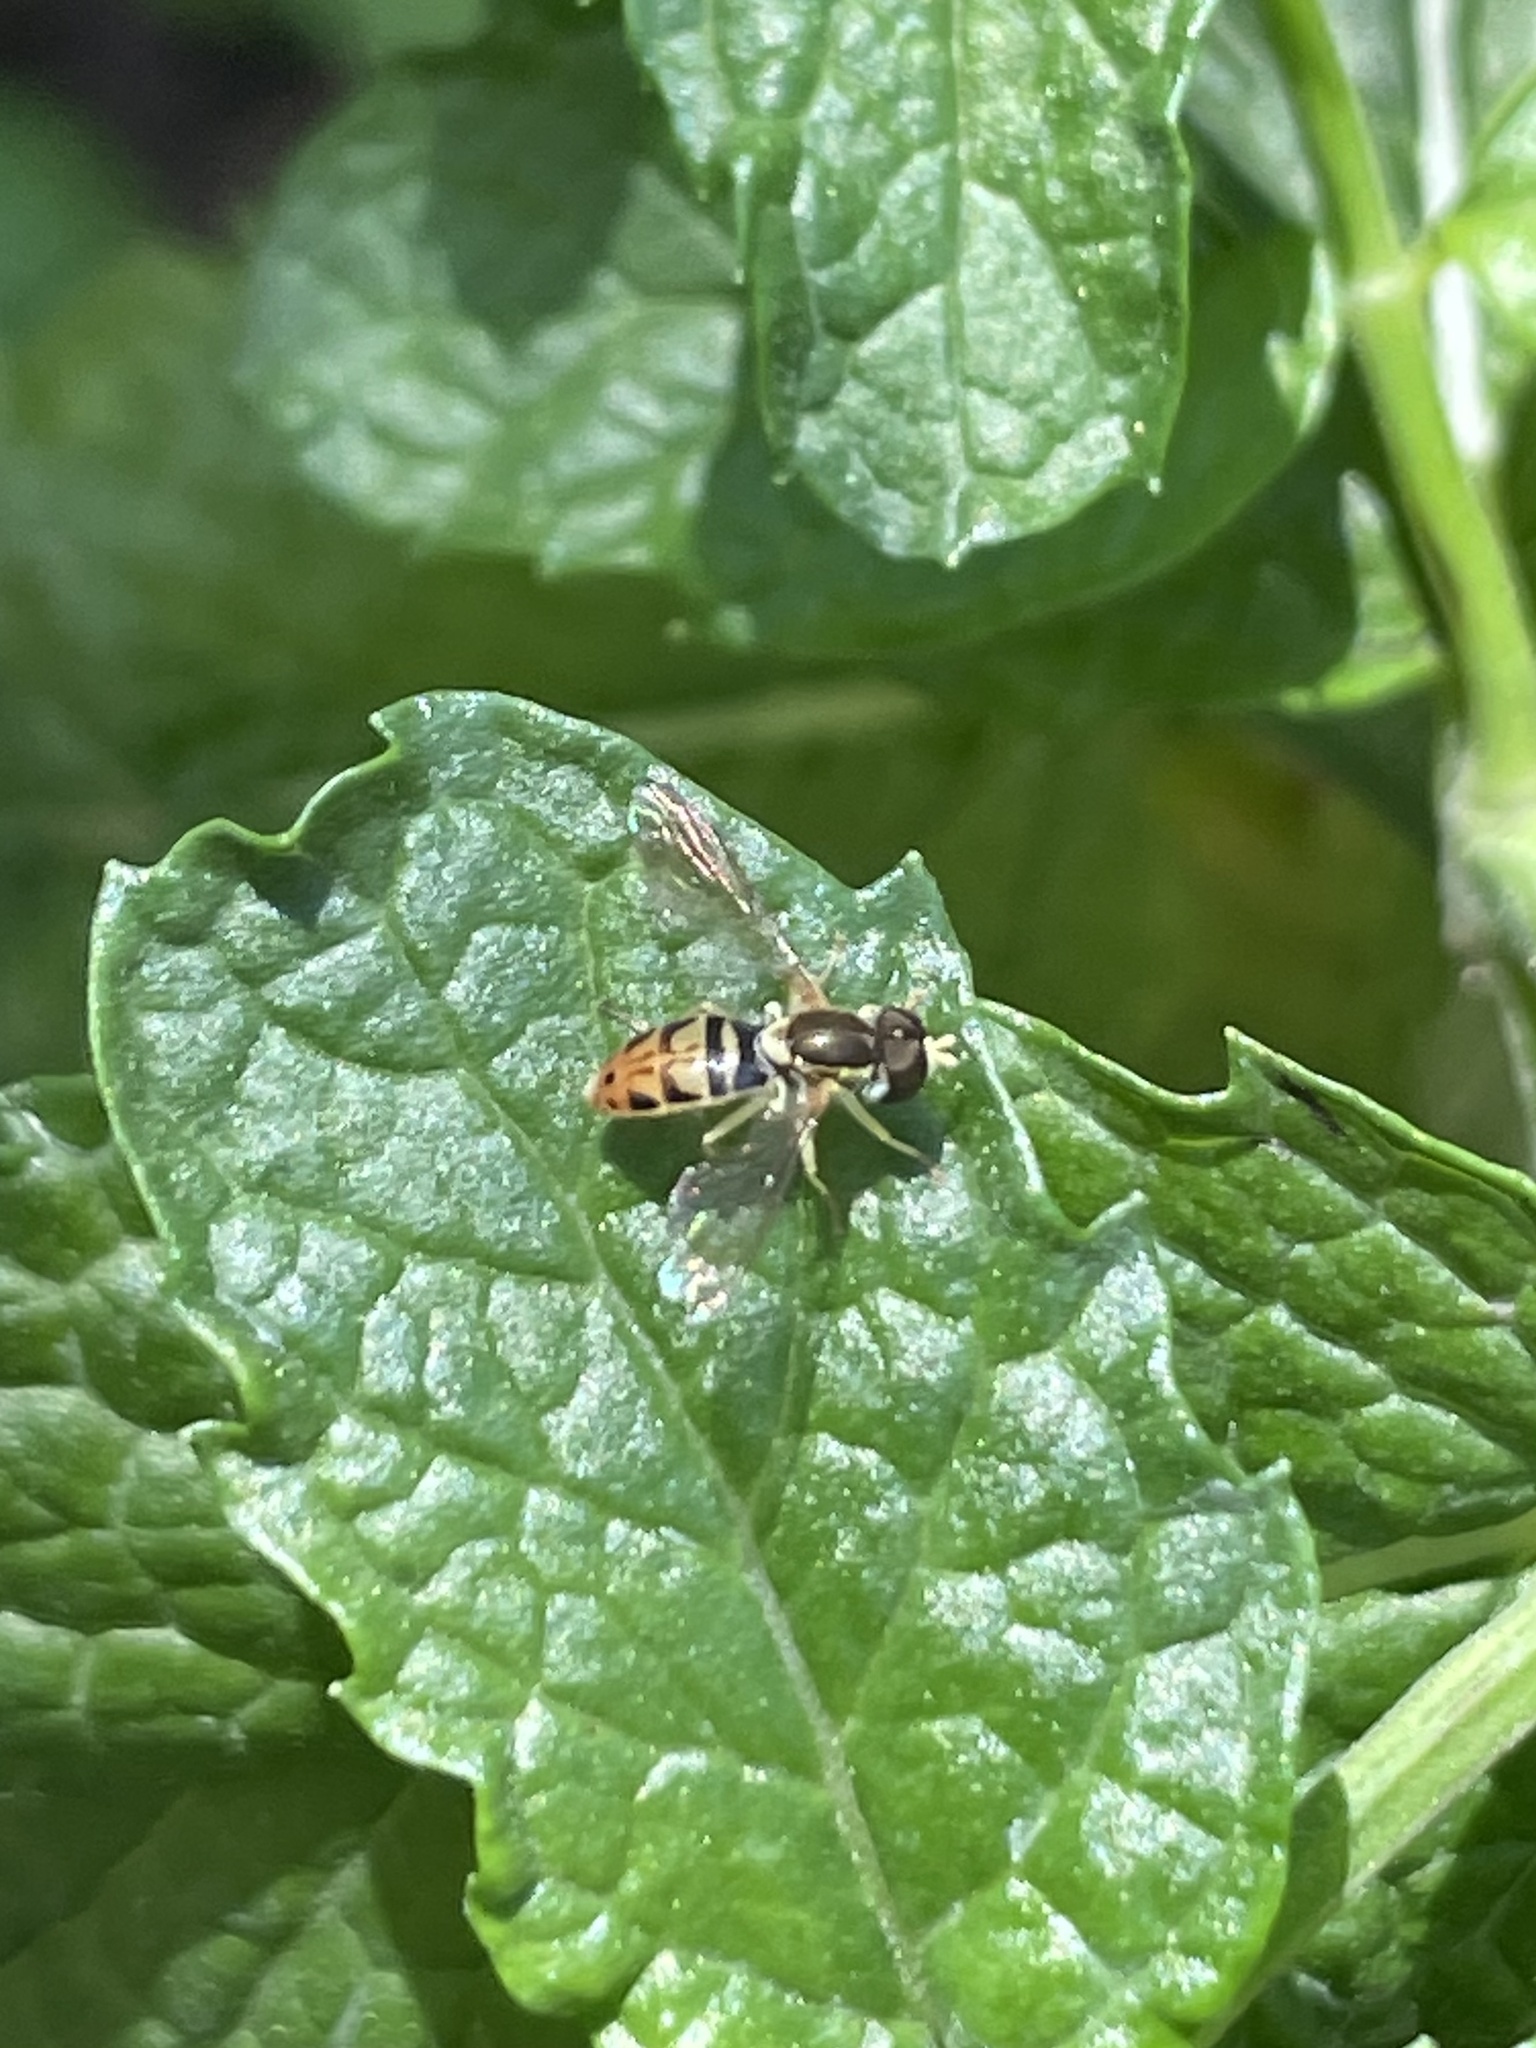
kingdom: Animalia
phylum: Arthropoda
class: Insecta
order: Diptera
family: Syrphidae
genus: Toxomerus
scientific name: Toxomerus marginatus
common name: Syrphid fly
